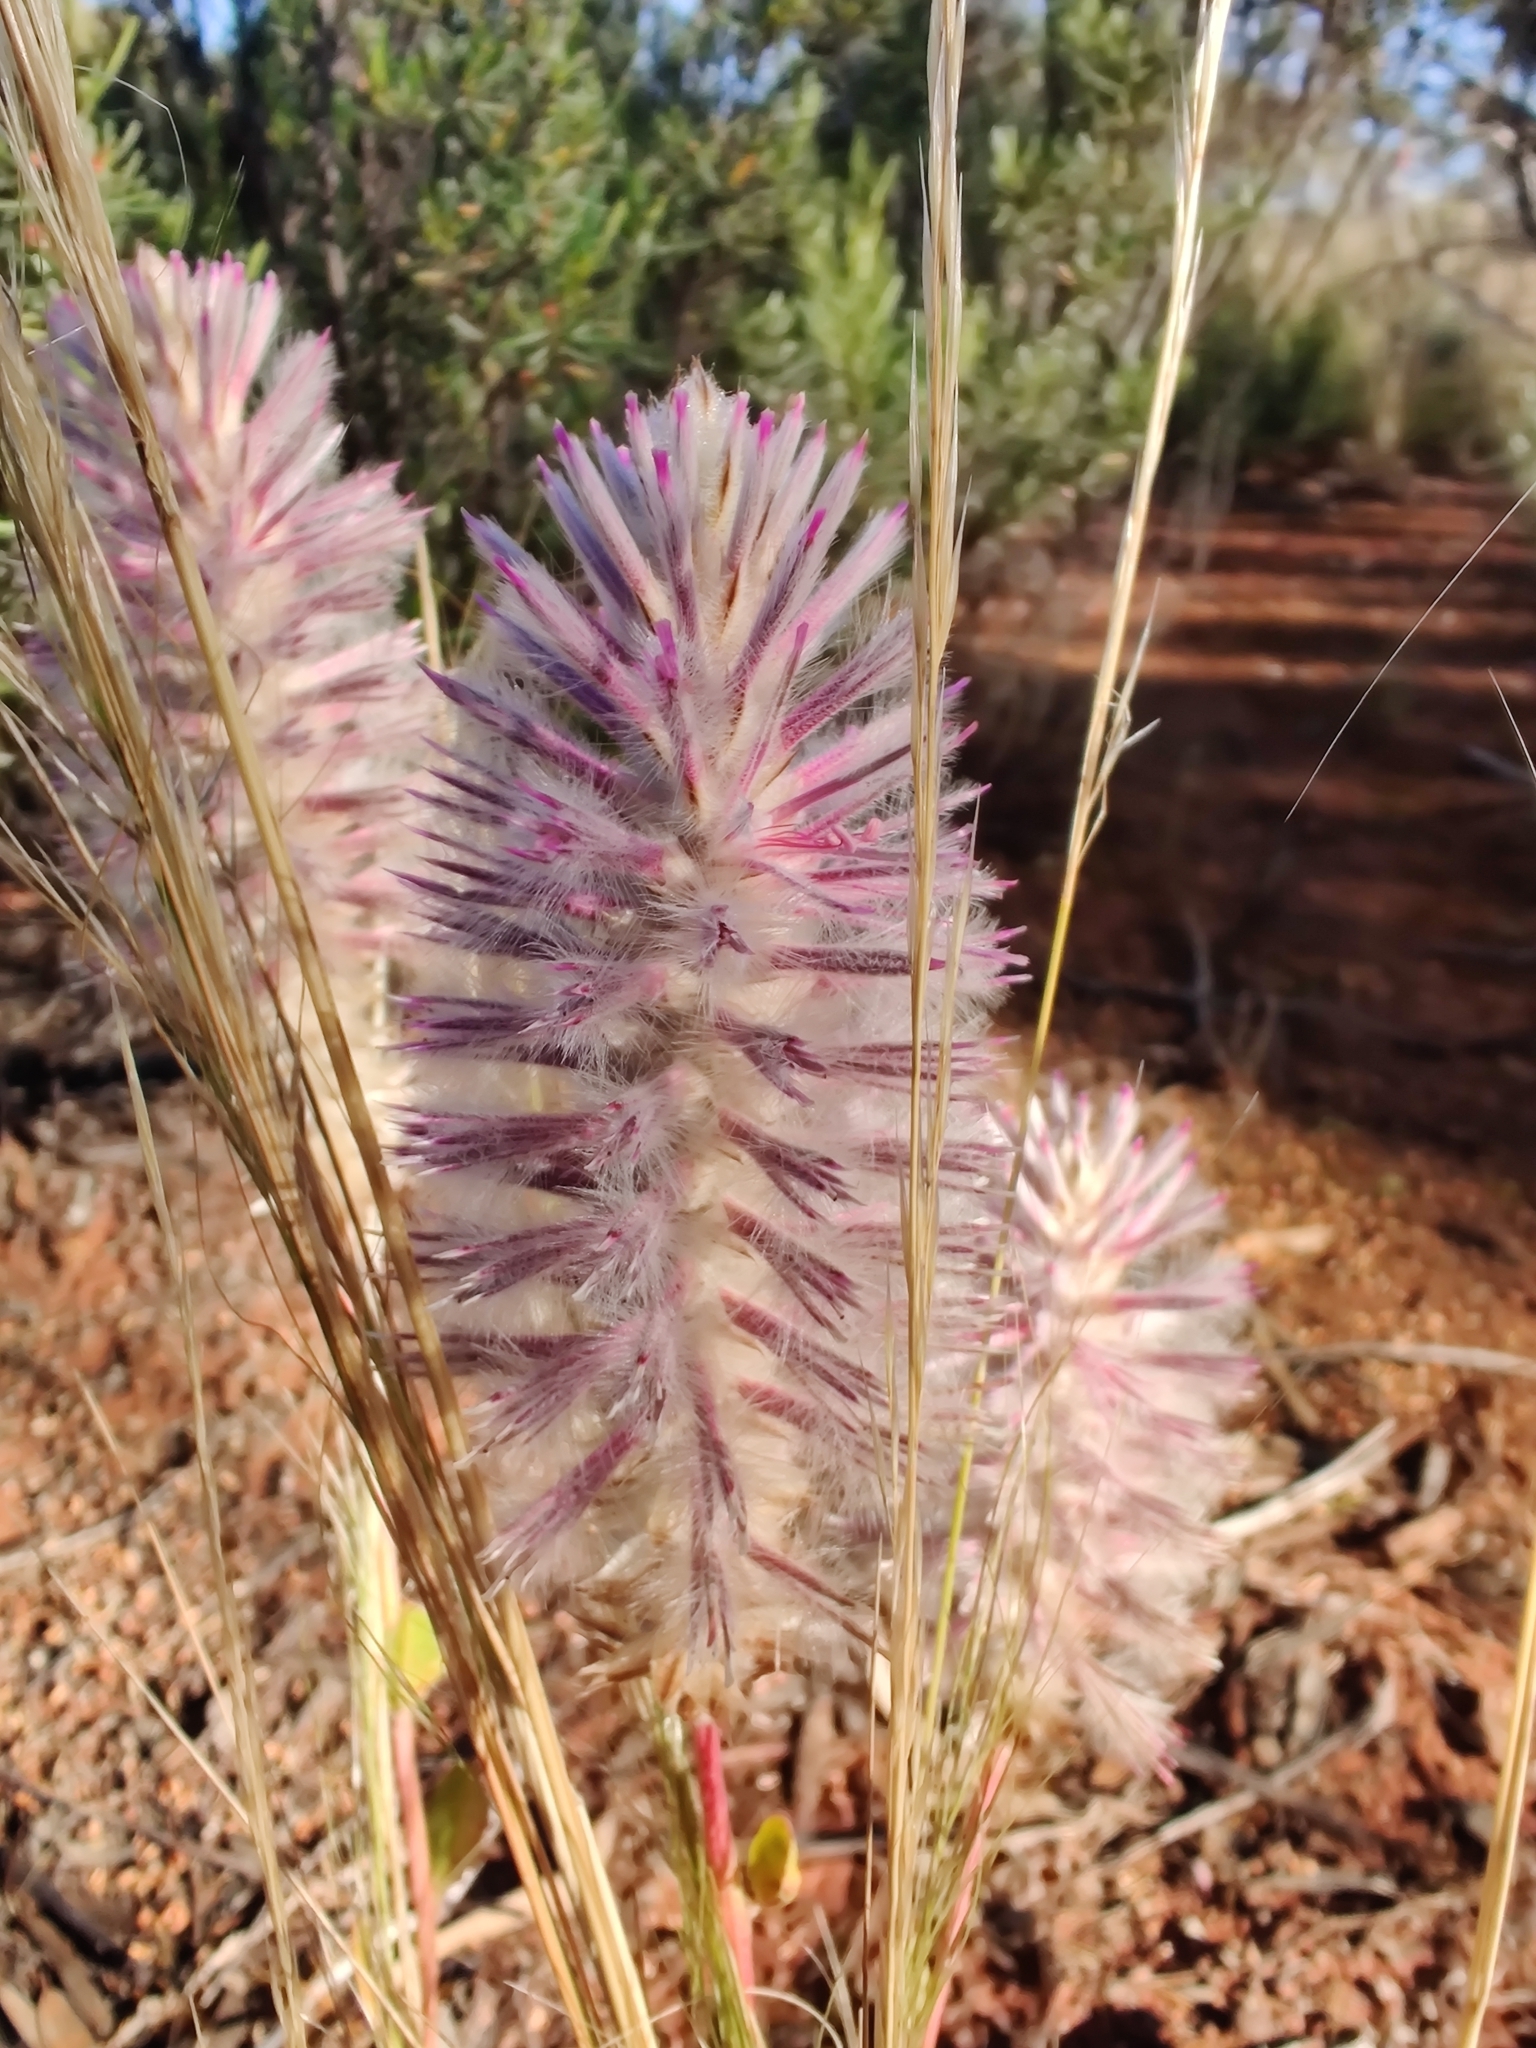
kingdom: Plantae
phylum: Tracheophyta
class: Magnoliopsida
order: Caryophyllales
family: Amaranthaceae
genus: Ptilotus
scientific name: Ptilotus exaltatus
